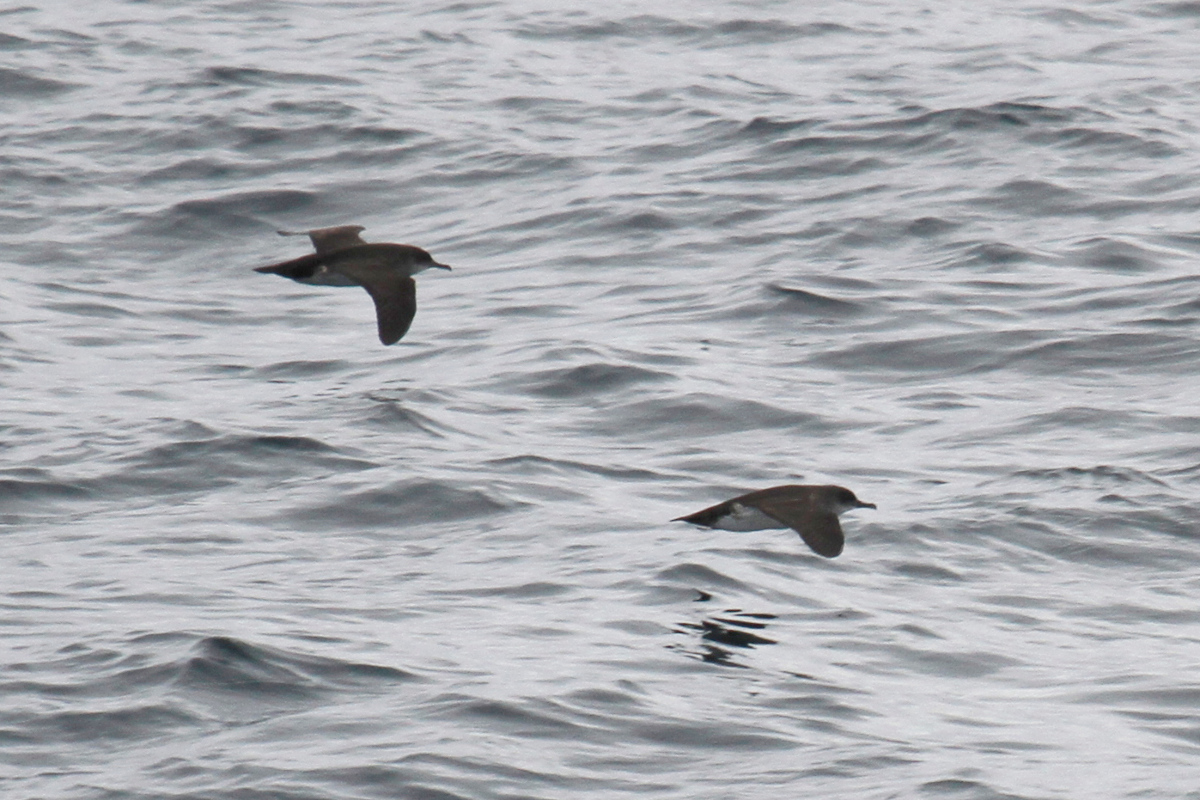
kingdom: Animalia
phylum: Chordata
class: Aves
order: Procellariiformes
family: Procellariidae
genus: Puffinus
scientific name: Puffinus opisthomelas
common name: Black-vented shearwater
